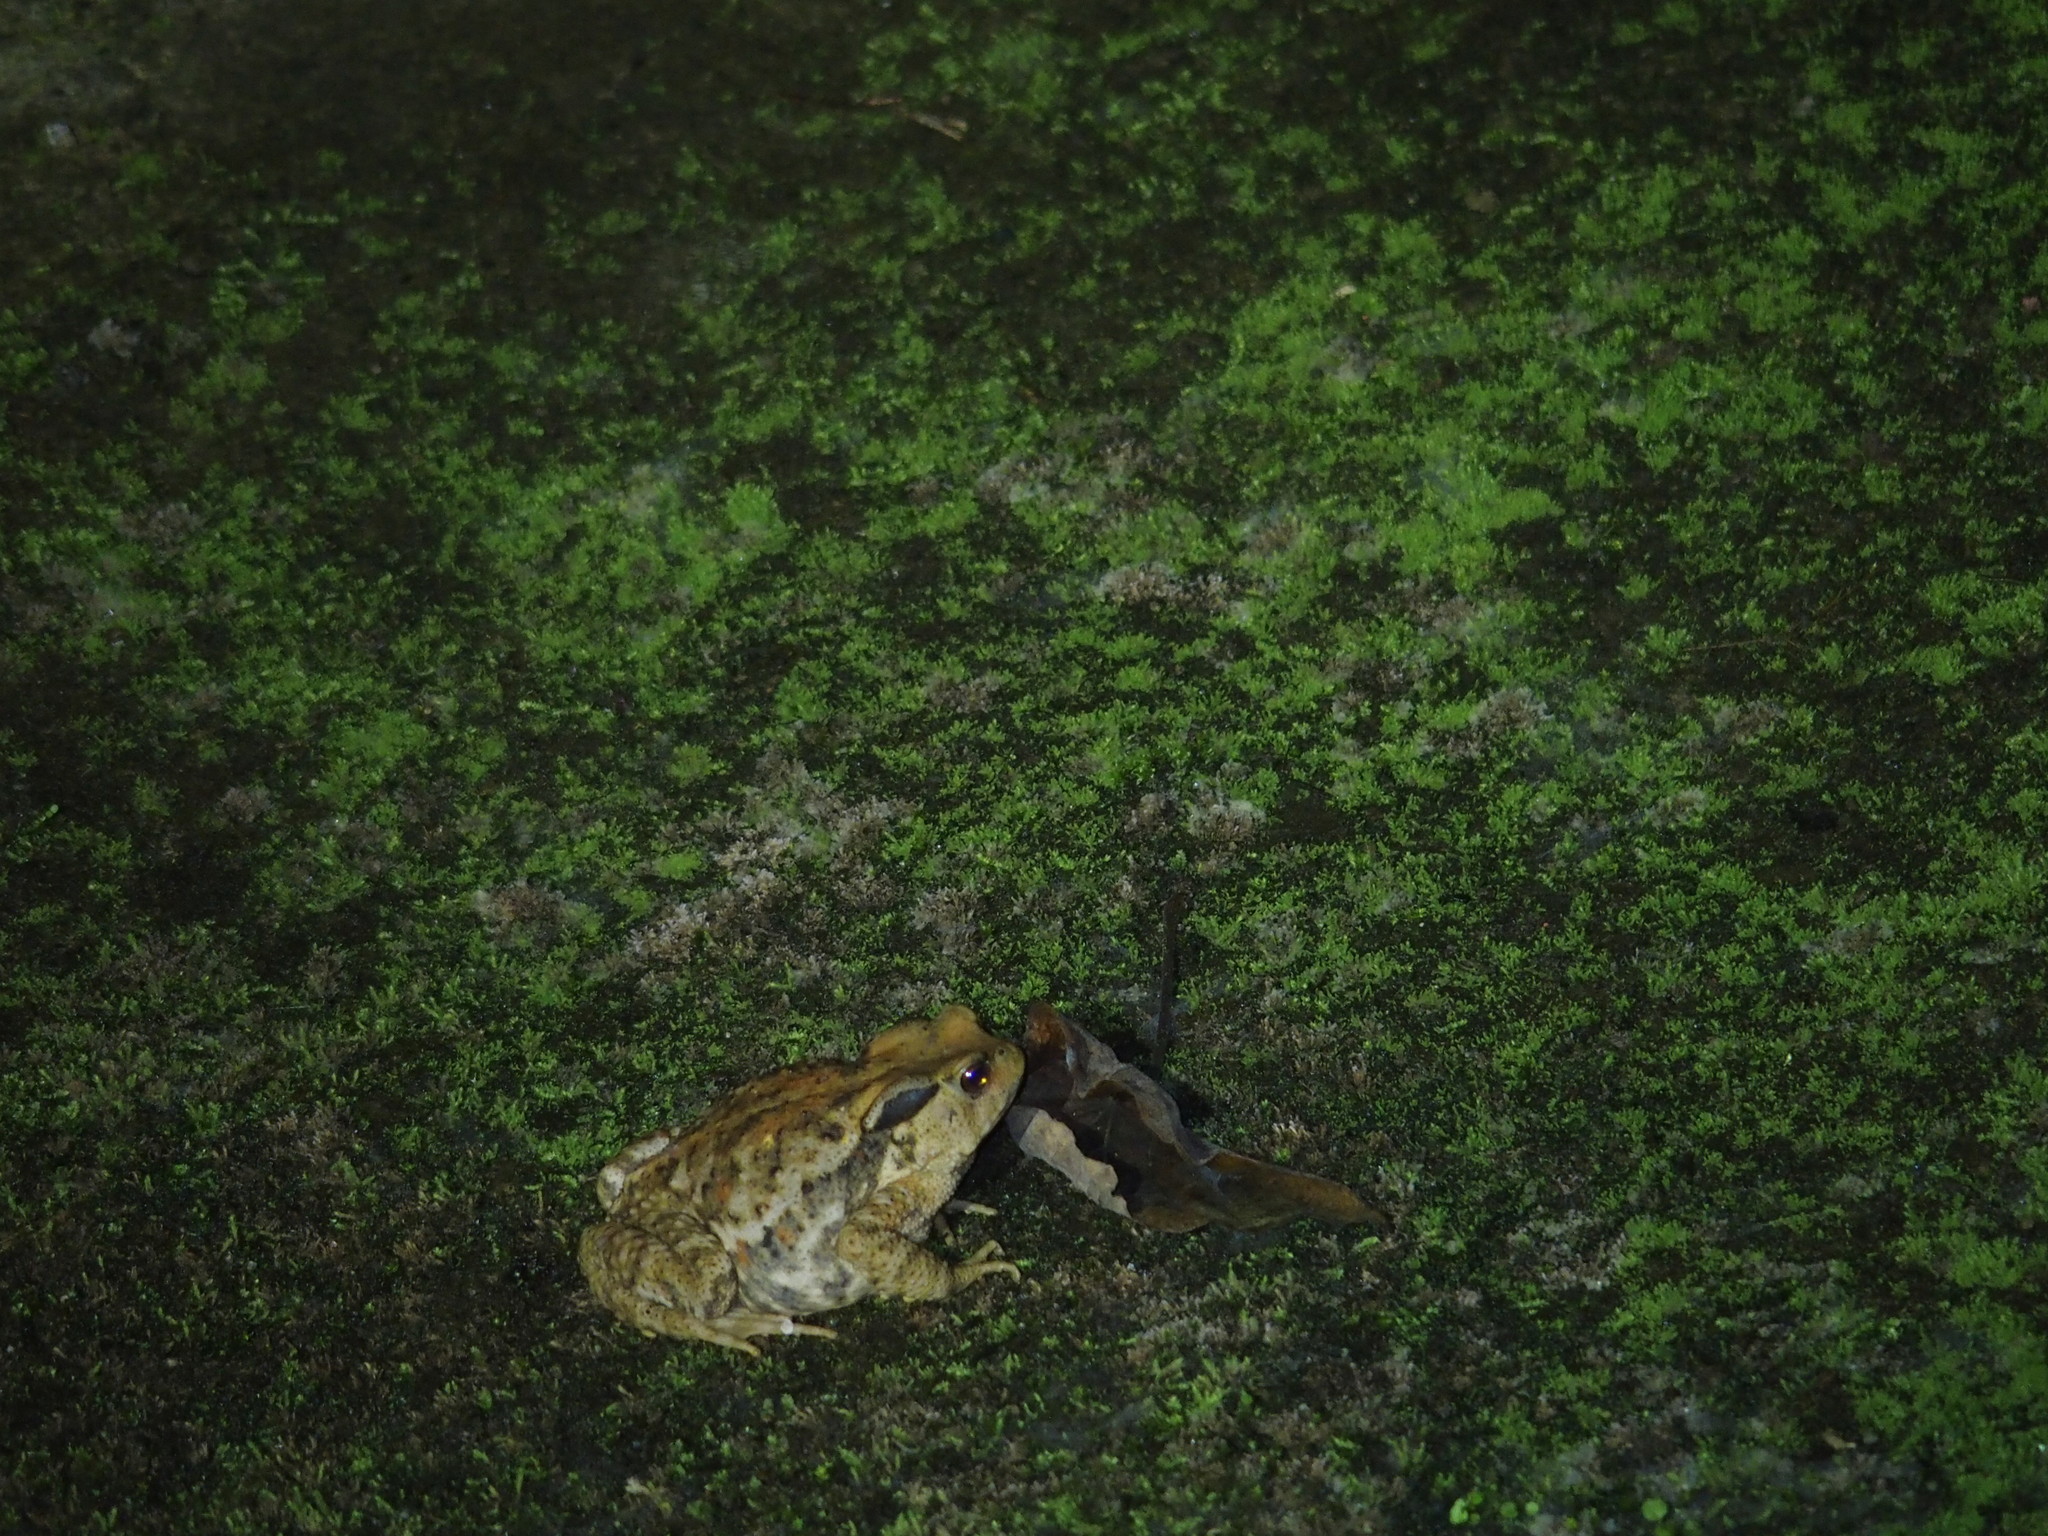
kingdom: Animalia
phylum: Chordata
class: Amphibia
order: Anura
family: Bufonidae
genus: Bufo
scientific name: Bufo bankorensis
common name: Bankor toad
